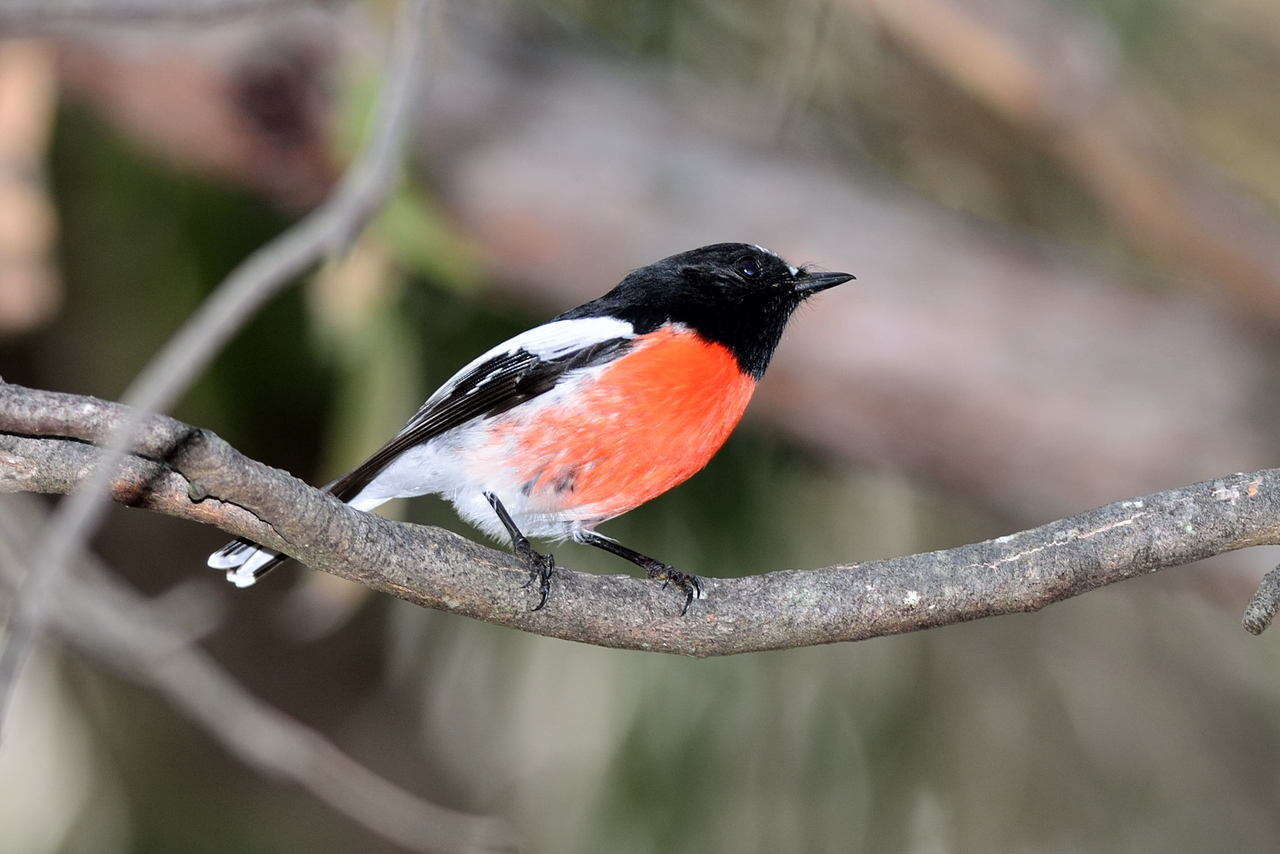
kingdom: Animalia
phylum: Chordata
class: Aves
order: Passeriformes
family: Petroicidae
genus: Petroica
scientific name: Petroica boodang
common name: Scarlet robin
